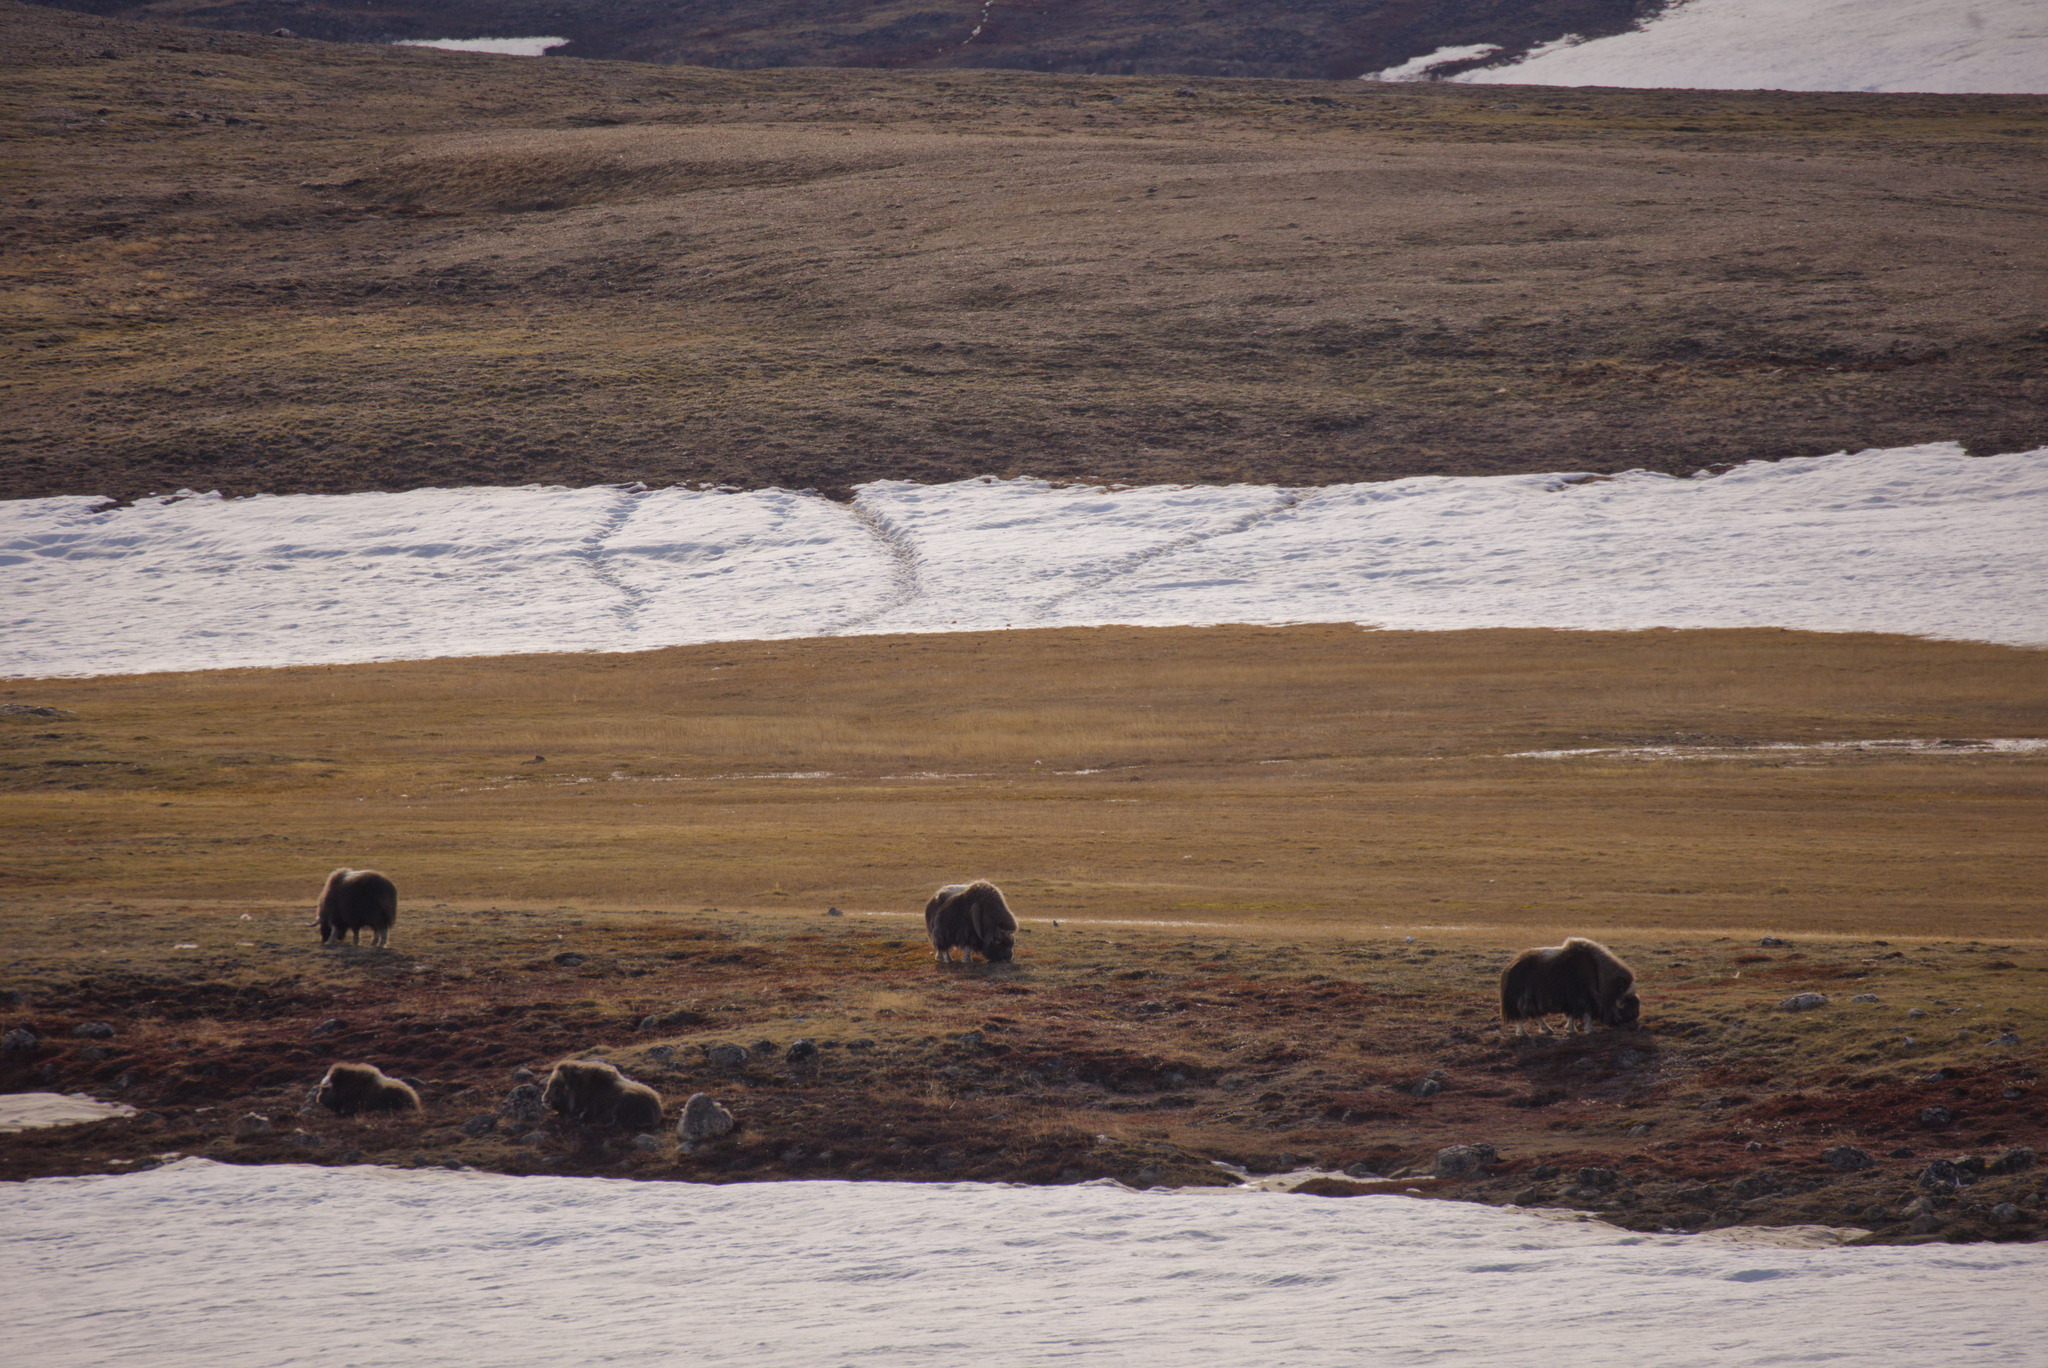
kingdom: Animalia
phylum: Chordata
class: Mammalia
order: Artiodactyla
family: Bovidae
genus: Ovibos
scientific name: Ovibos moschatus
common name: Muskox
